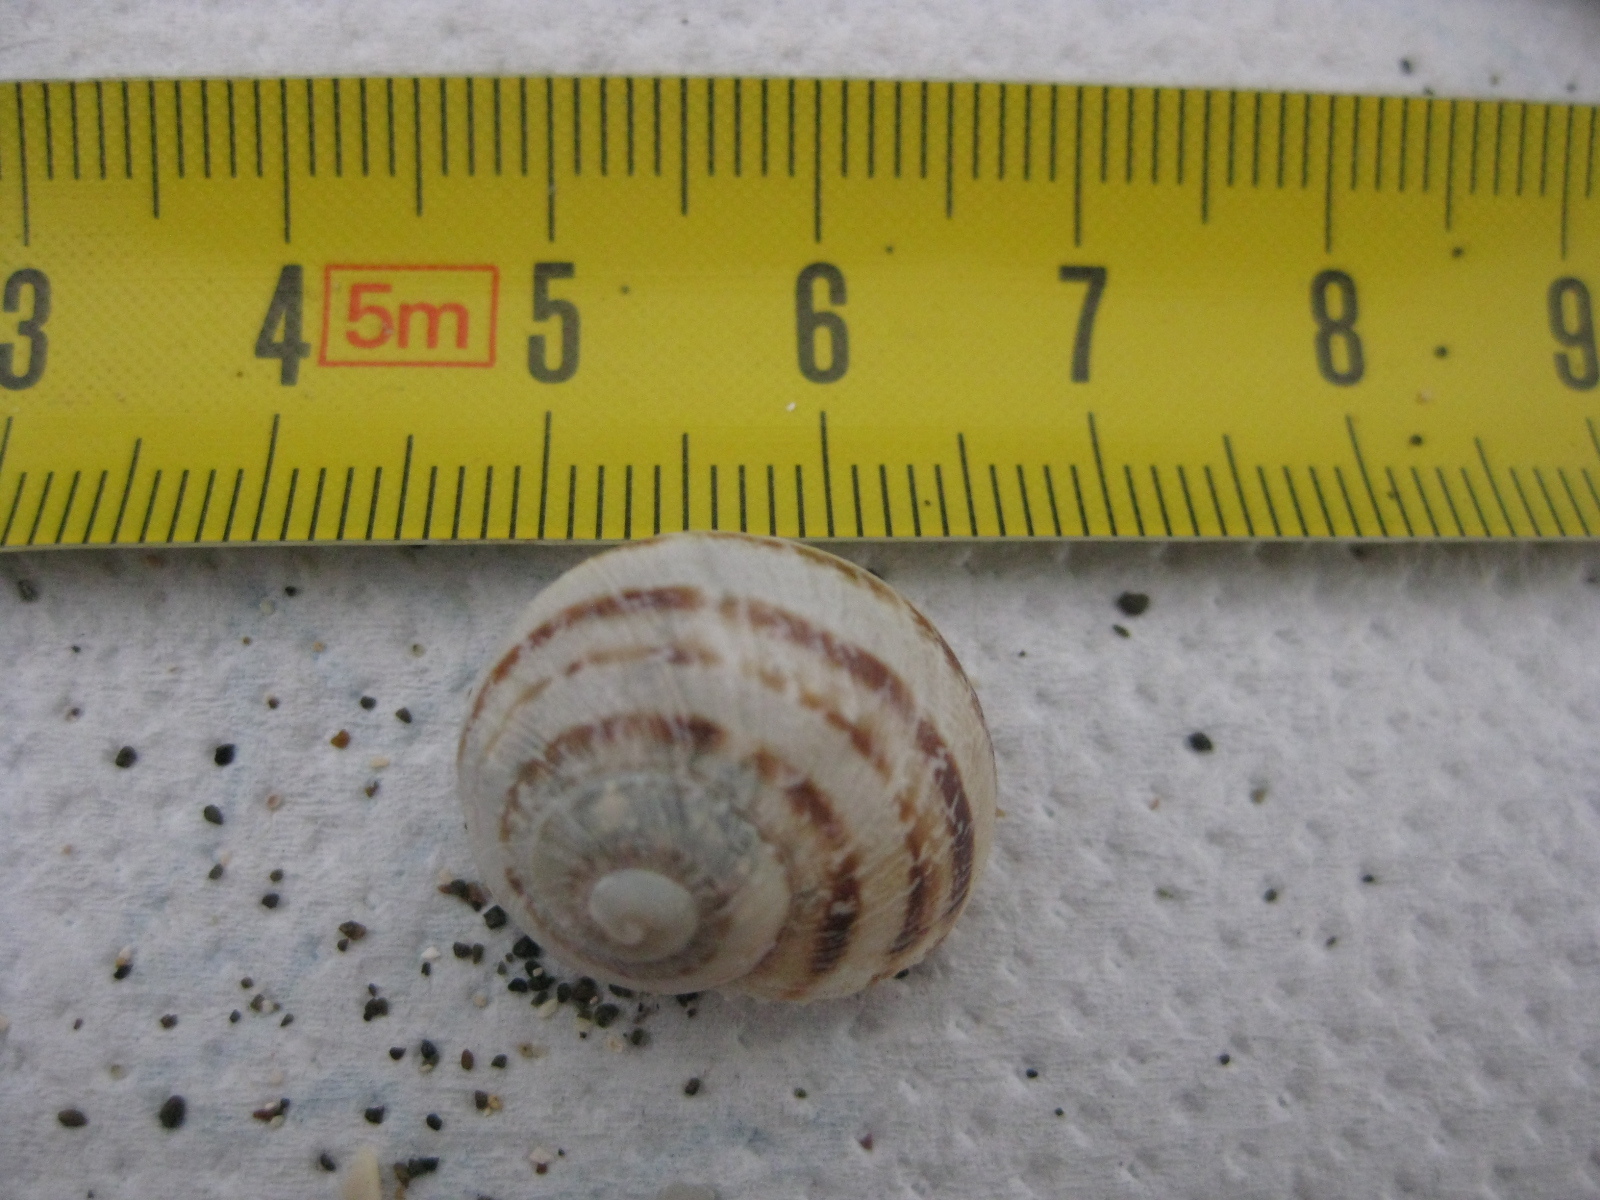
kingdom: Animalia
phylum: Mollusca
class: Gastropoda
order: Stylommatophora
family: Helicidae
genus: Cornu
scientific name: Cornu aspersum
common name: Brown garden snail
